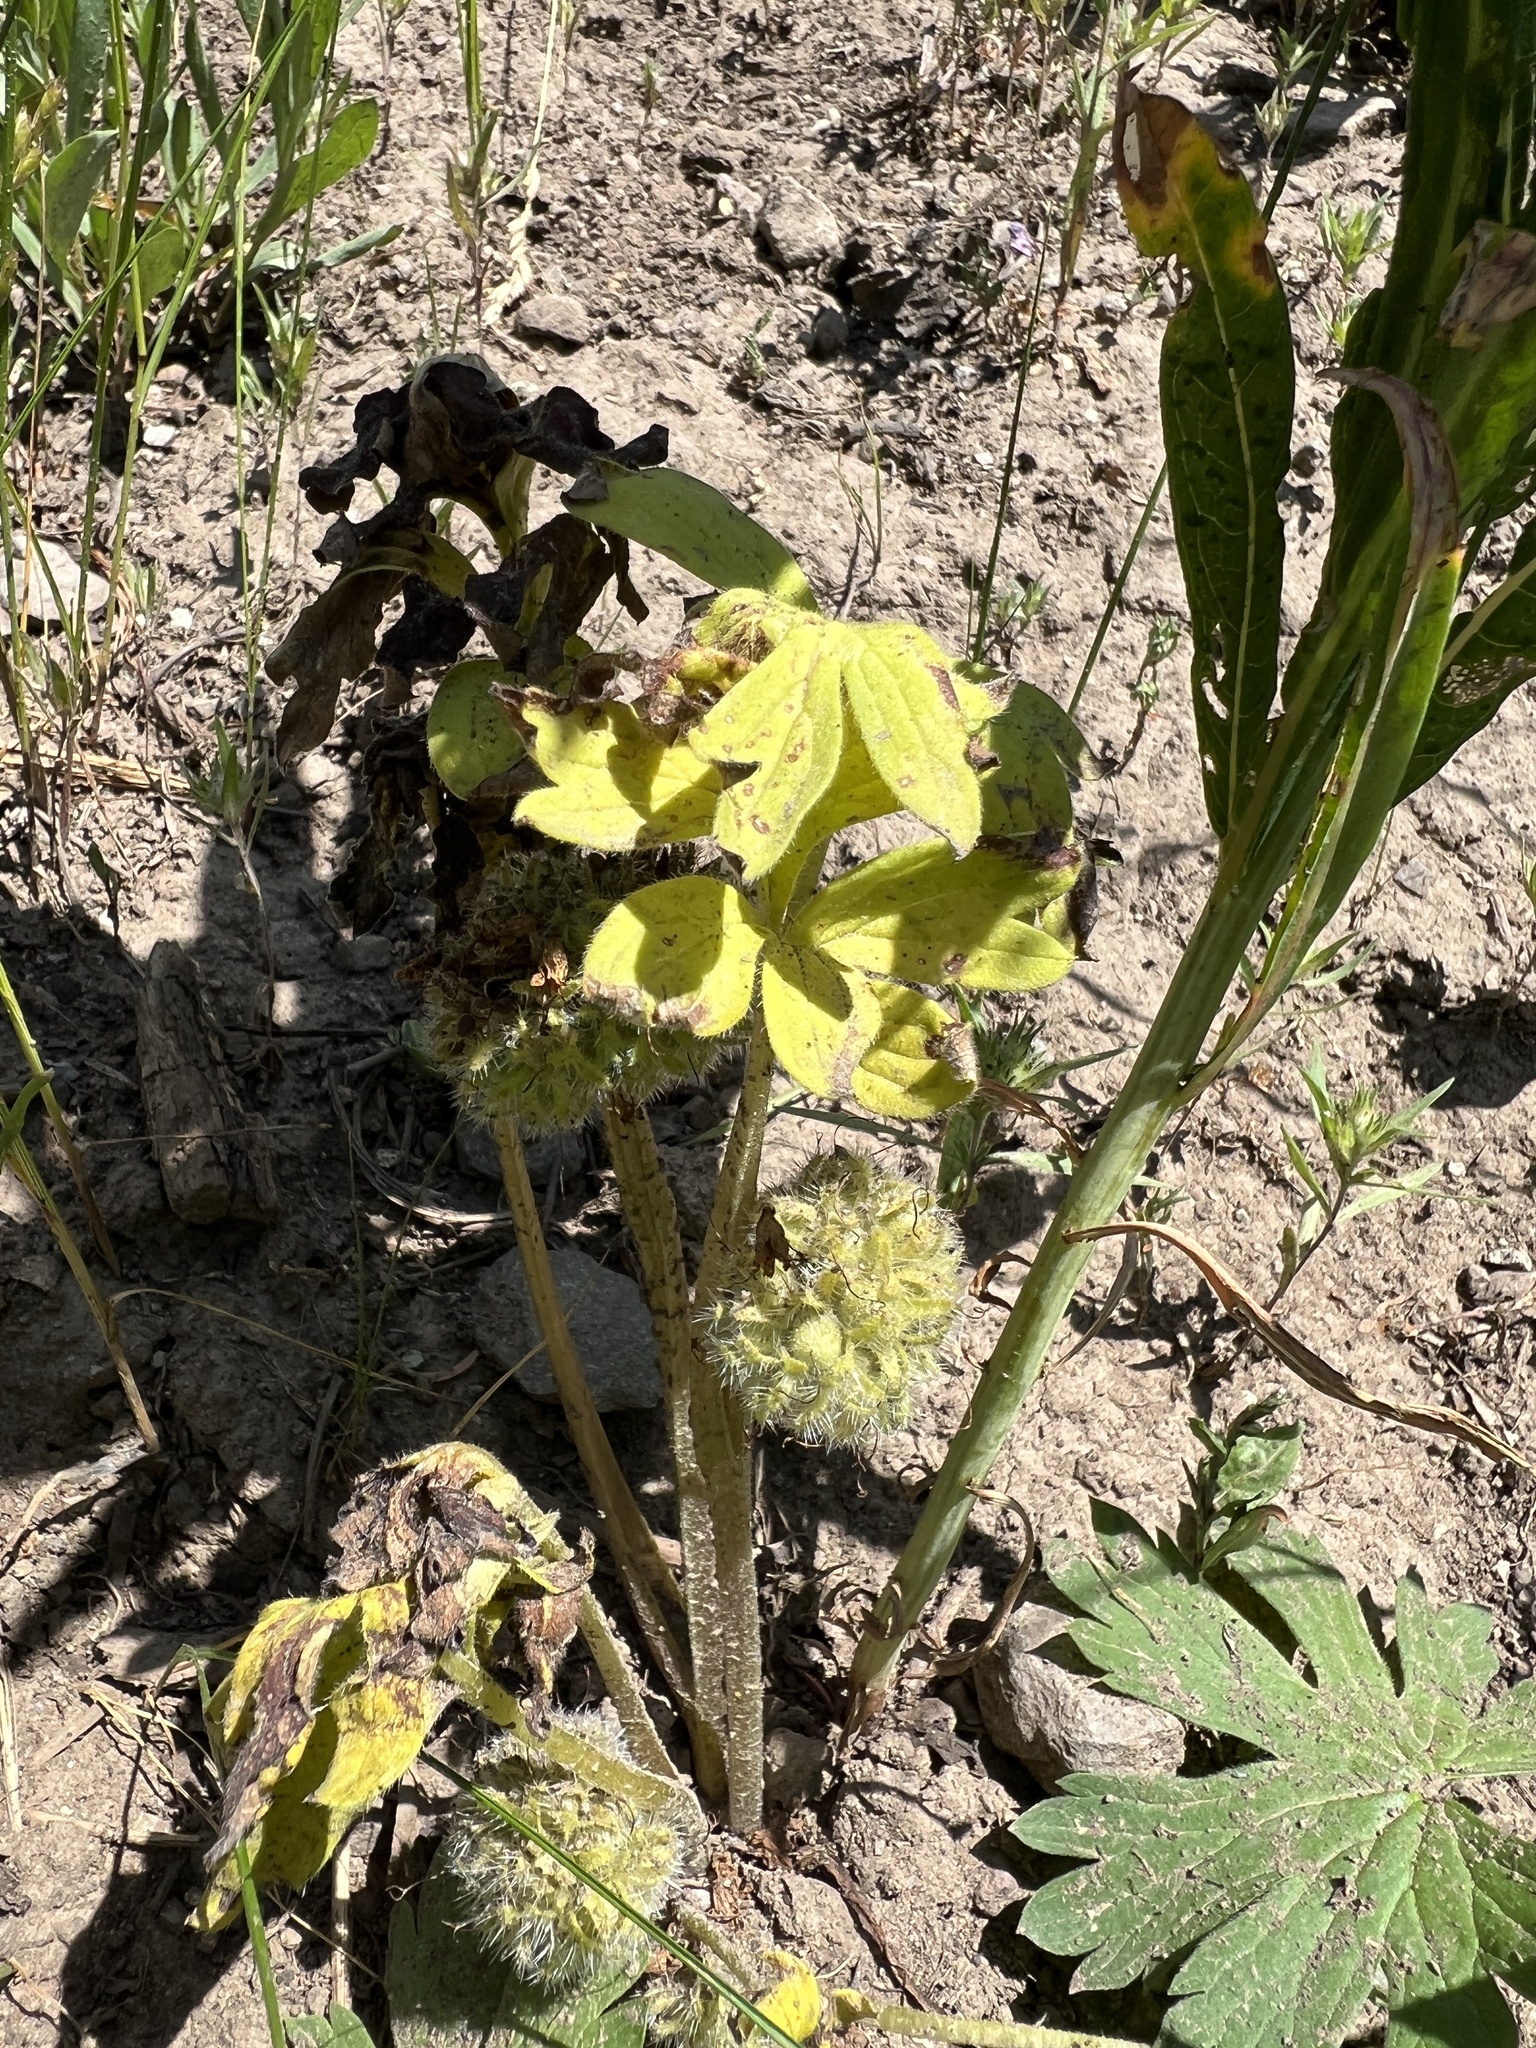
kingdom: Plantae
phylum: Tracheophyta
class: Magnoliopsida
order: Boraginales
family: Hydrophyllaceae
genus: Hydrophyllum
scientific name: Hydrophyllum capitatum
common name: Woollen-breeches
